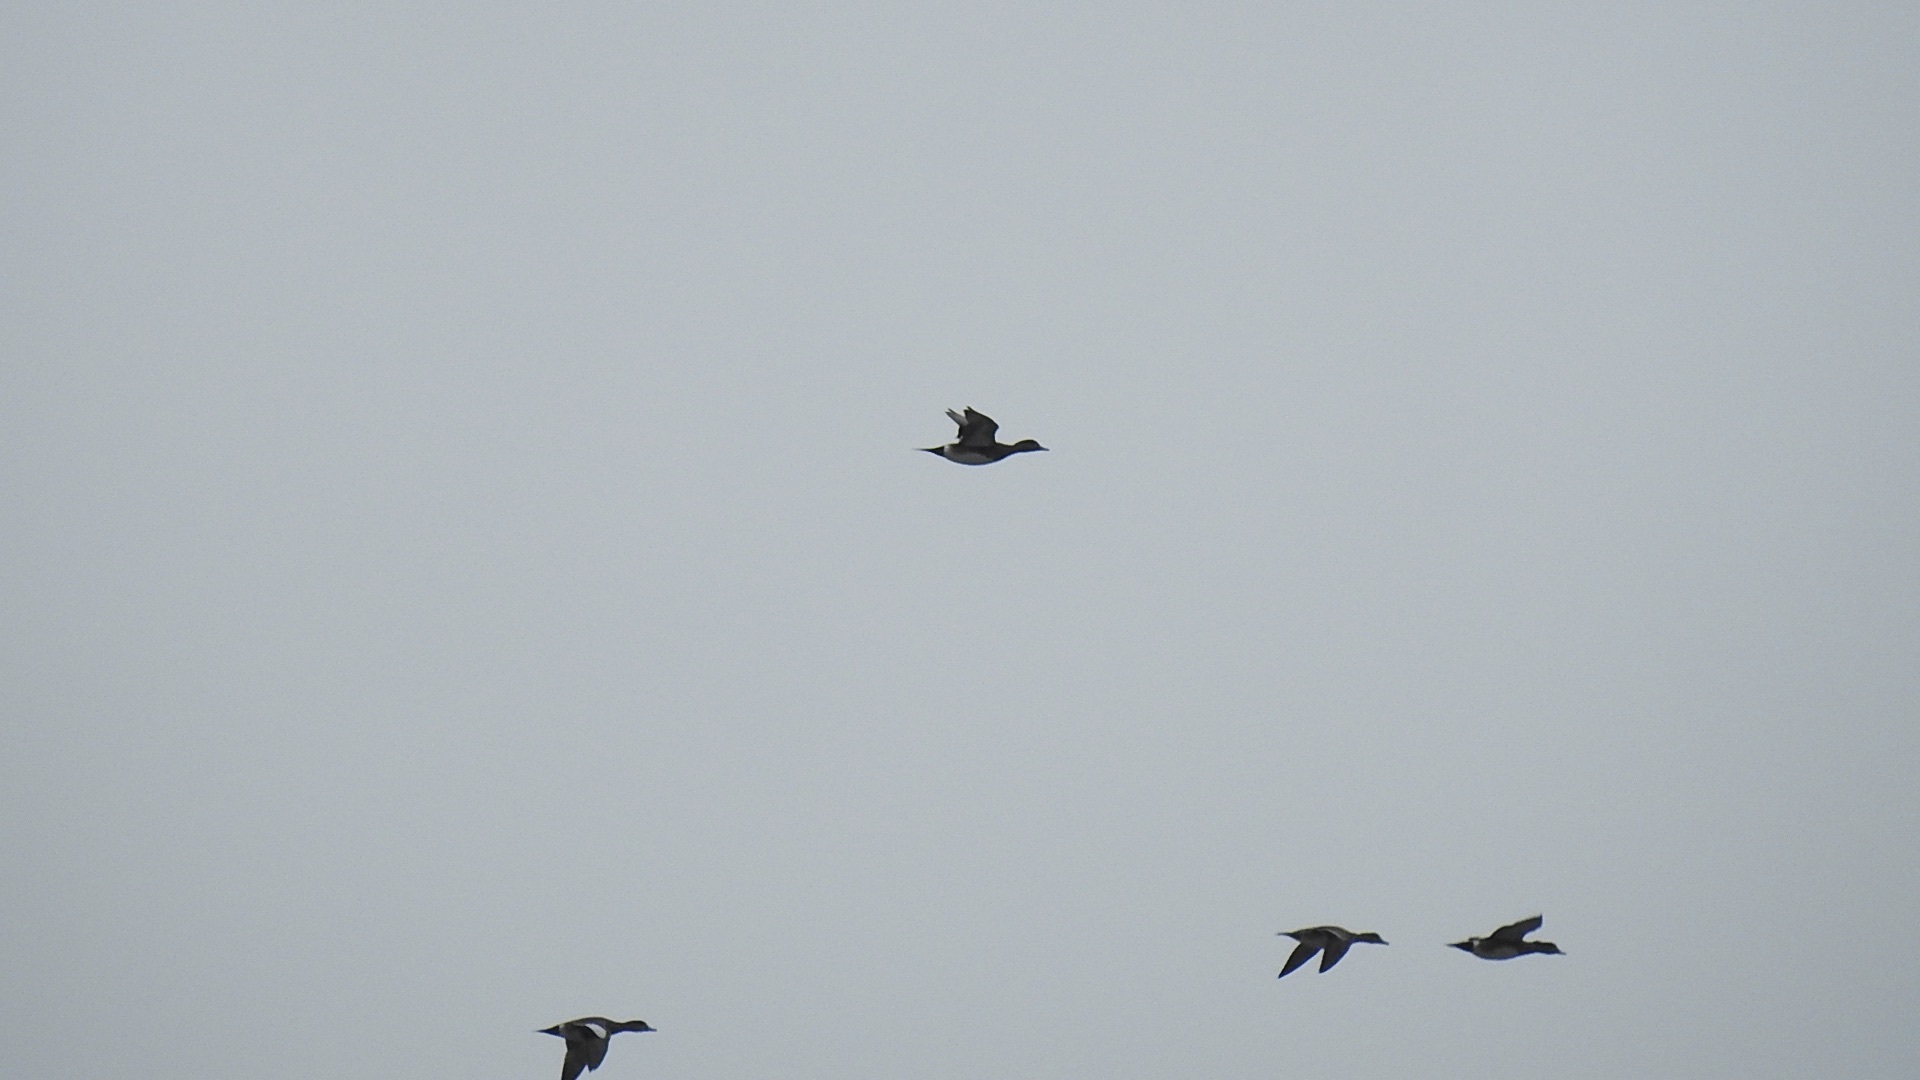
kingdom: Animalia
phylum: Chordata
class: Aves
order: Anseriformes
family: Anatidae
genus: Mareca
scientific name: Mareca americana
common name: American wigeon
